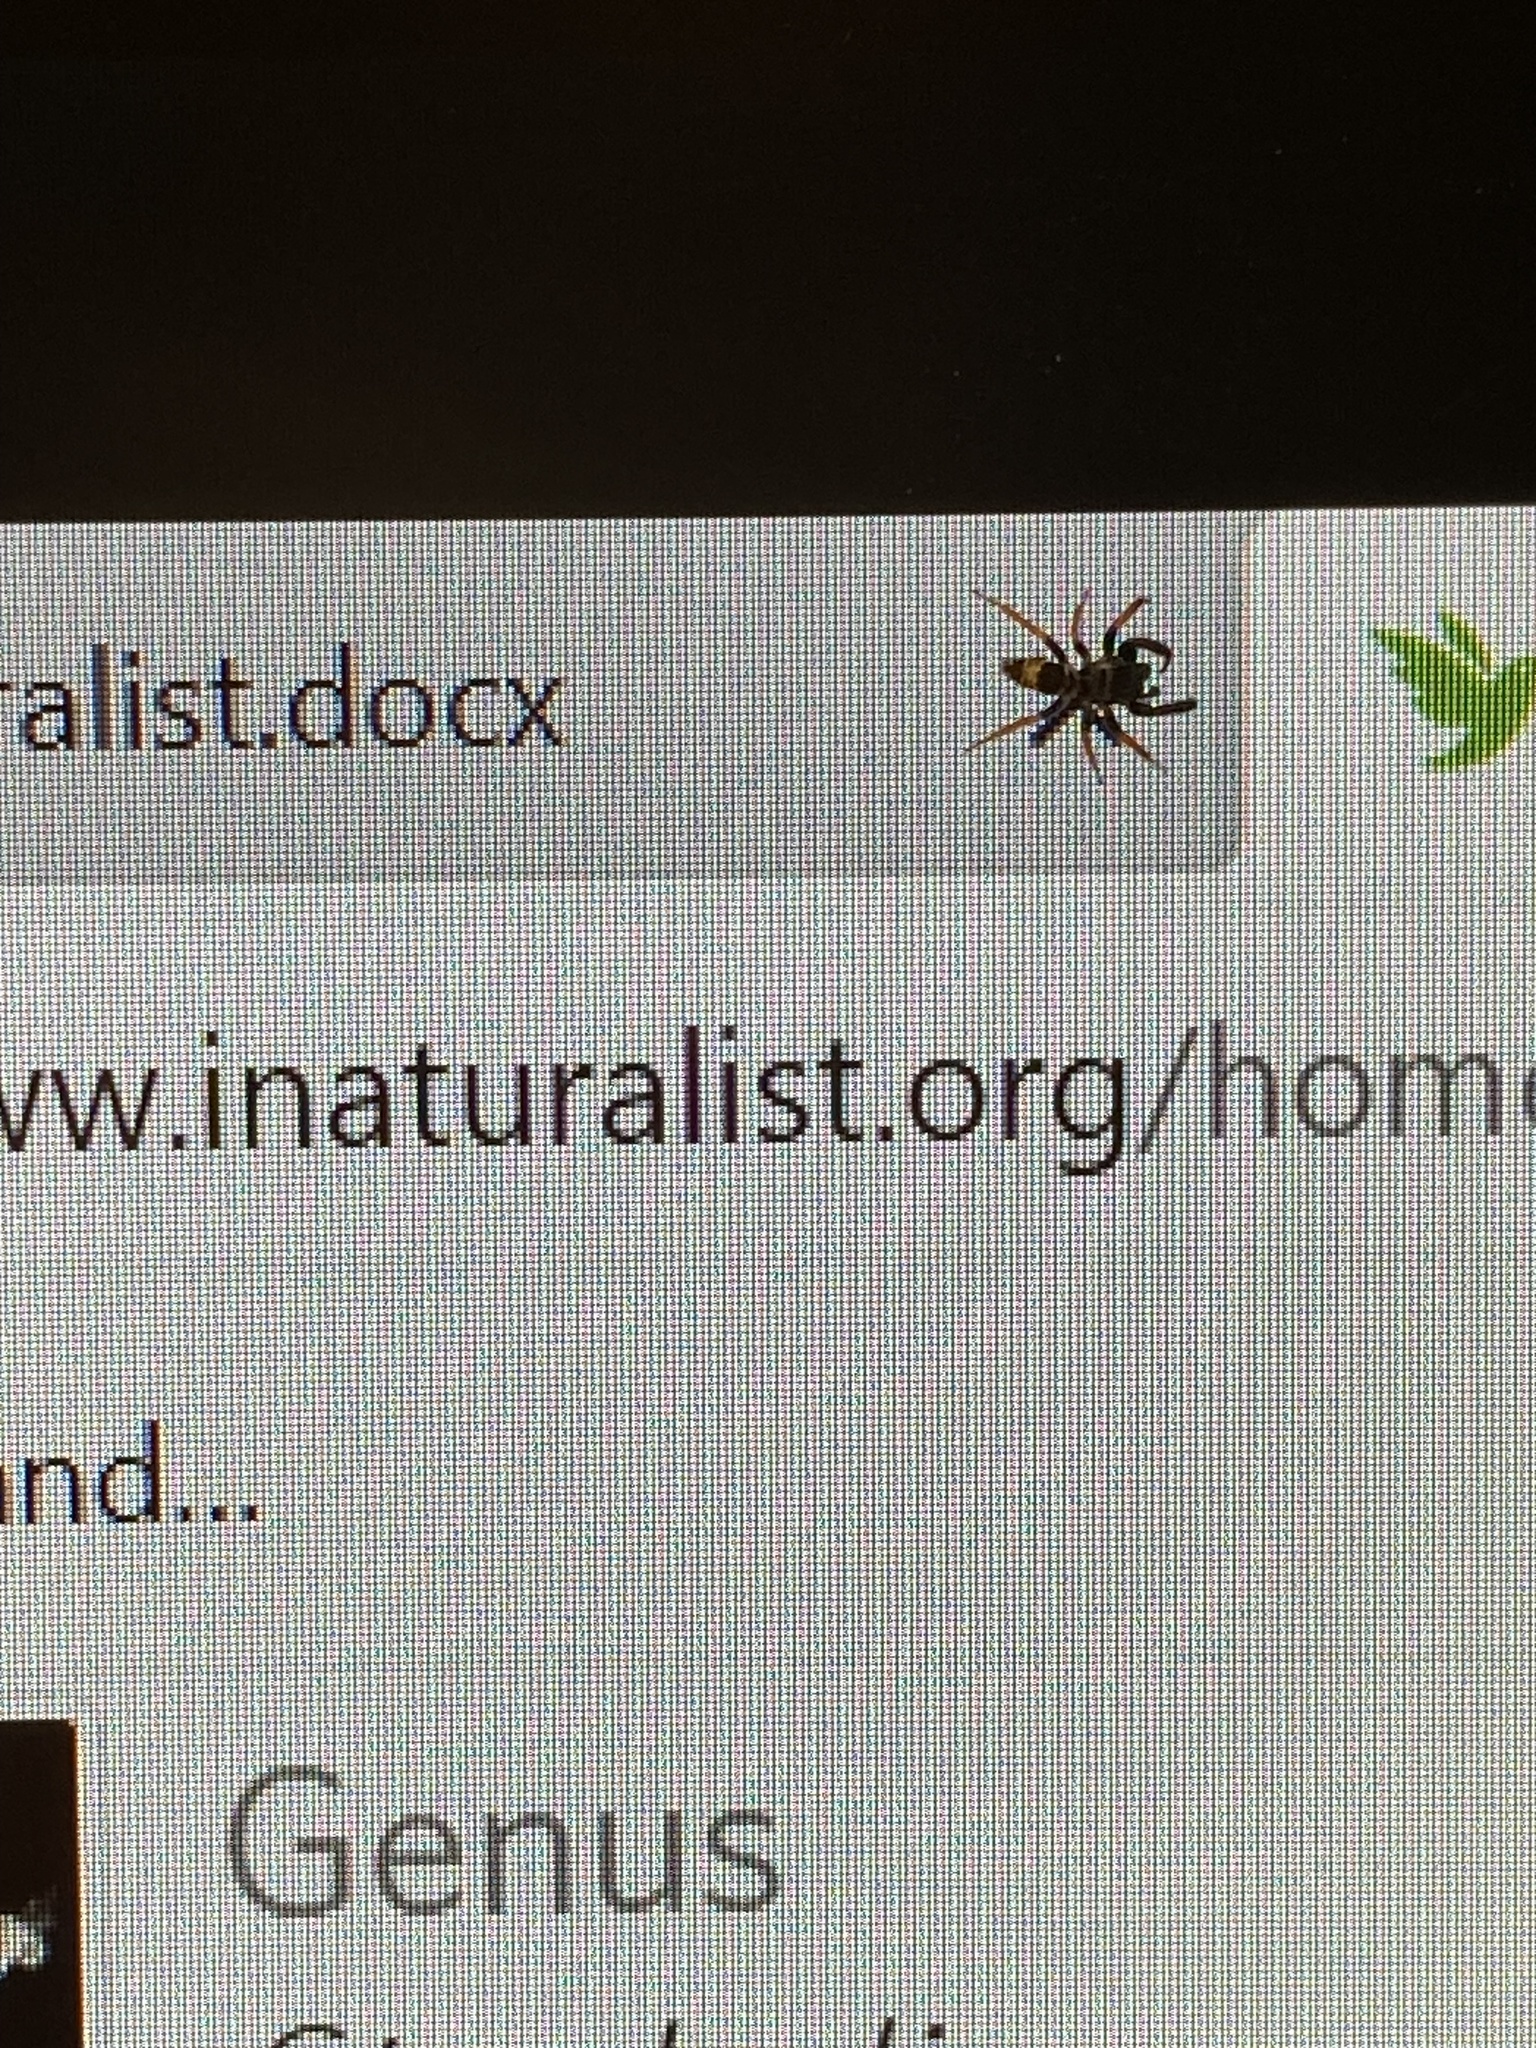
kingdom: Animalia
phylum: Arthropoda
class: Arachnida
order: Araneae
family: Salticidae
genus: Apricia
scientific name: Apricia jovialis
